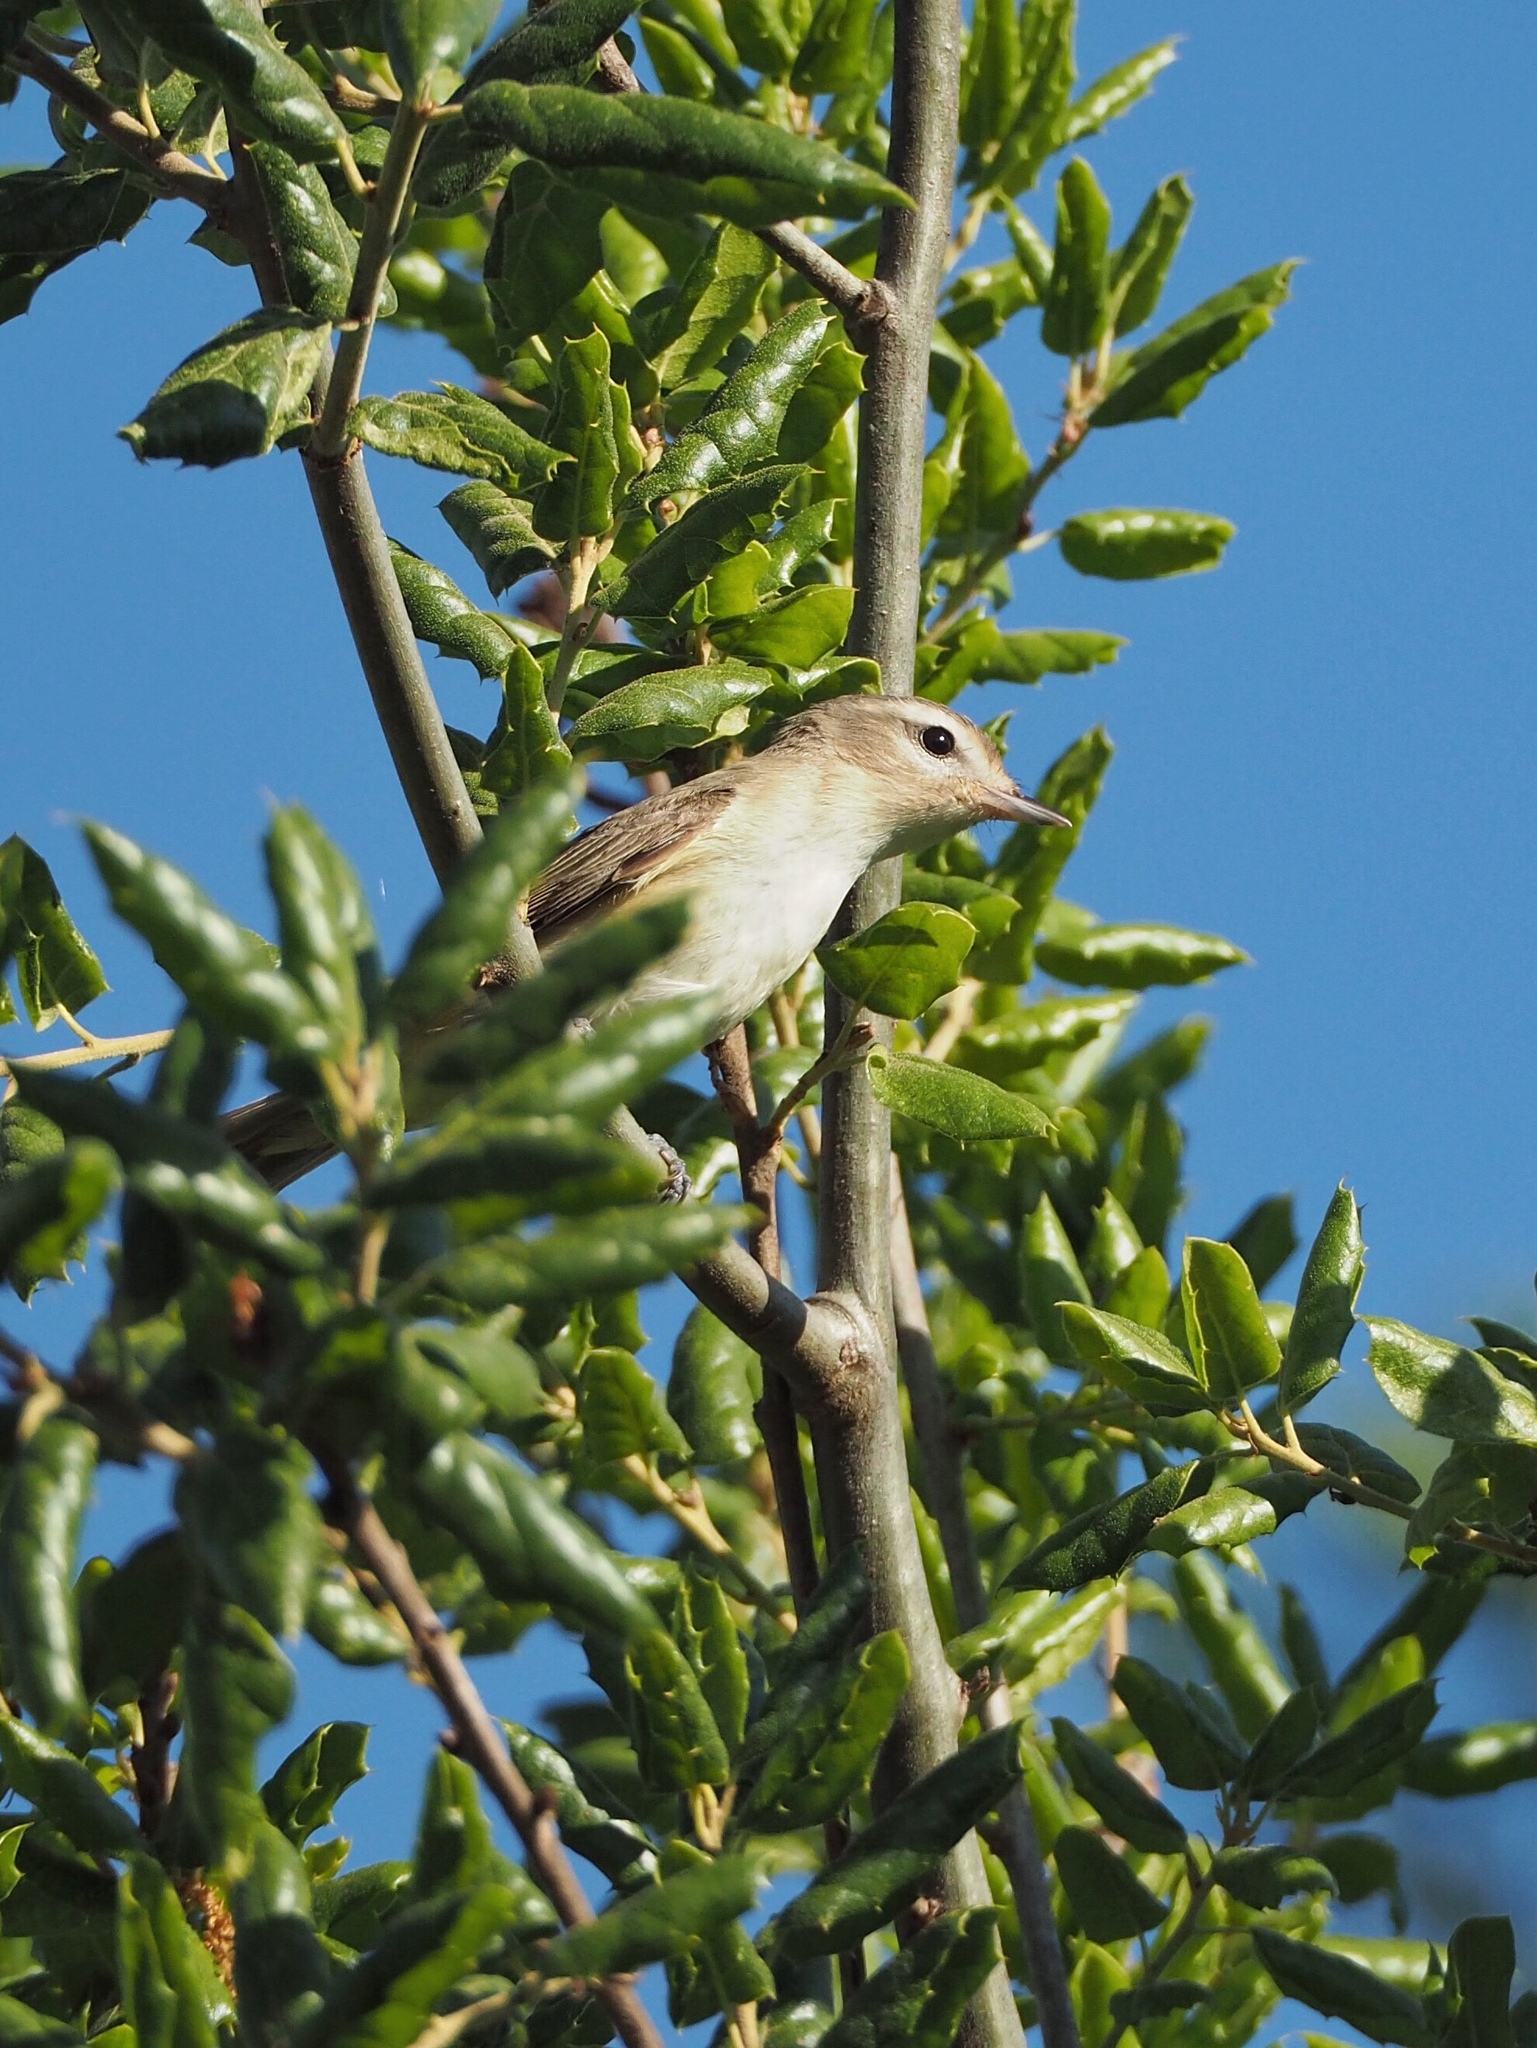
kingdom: Animalia
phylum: Chordata
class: Aves
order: Passeriformes
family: Vireonidae
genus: Vireo
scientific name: Vireo gilvus
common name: Warbling vireo
